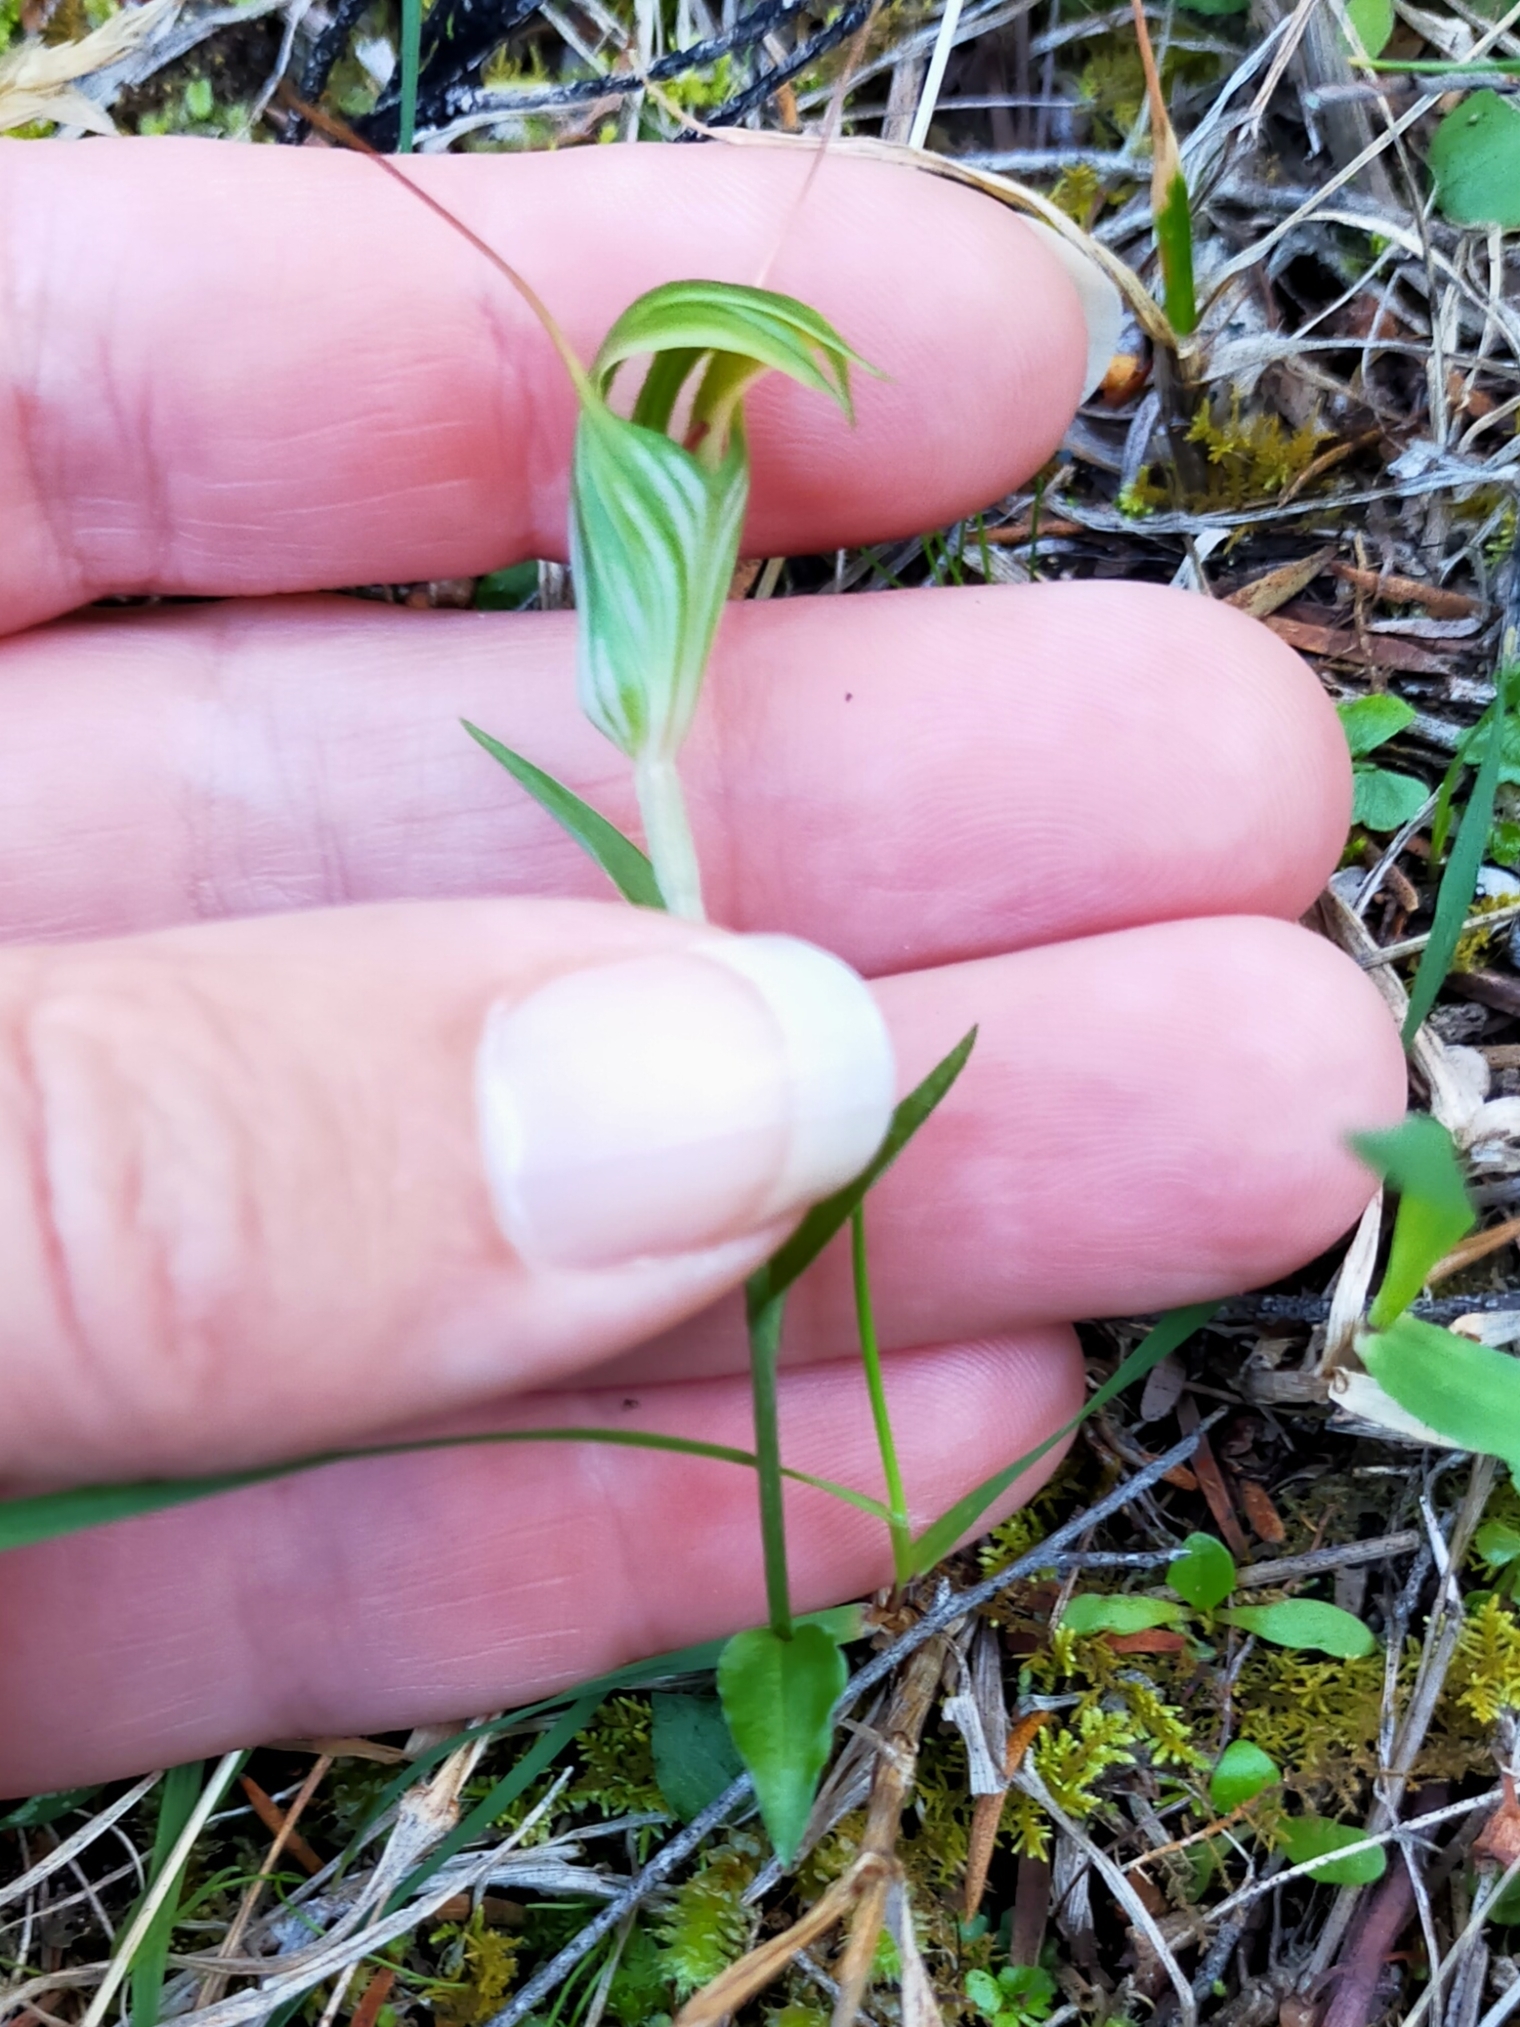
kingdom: Plantae
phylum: Tracheophyta
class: Liliopsida
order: Asparagales
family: Orchidaceae
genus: Pterostylis
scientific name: Pterostylis alobula
